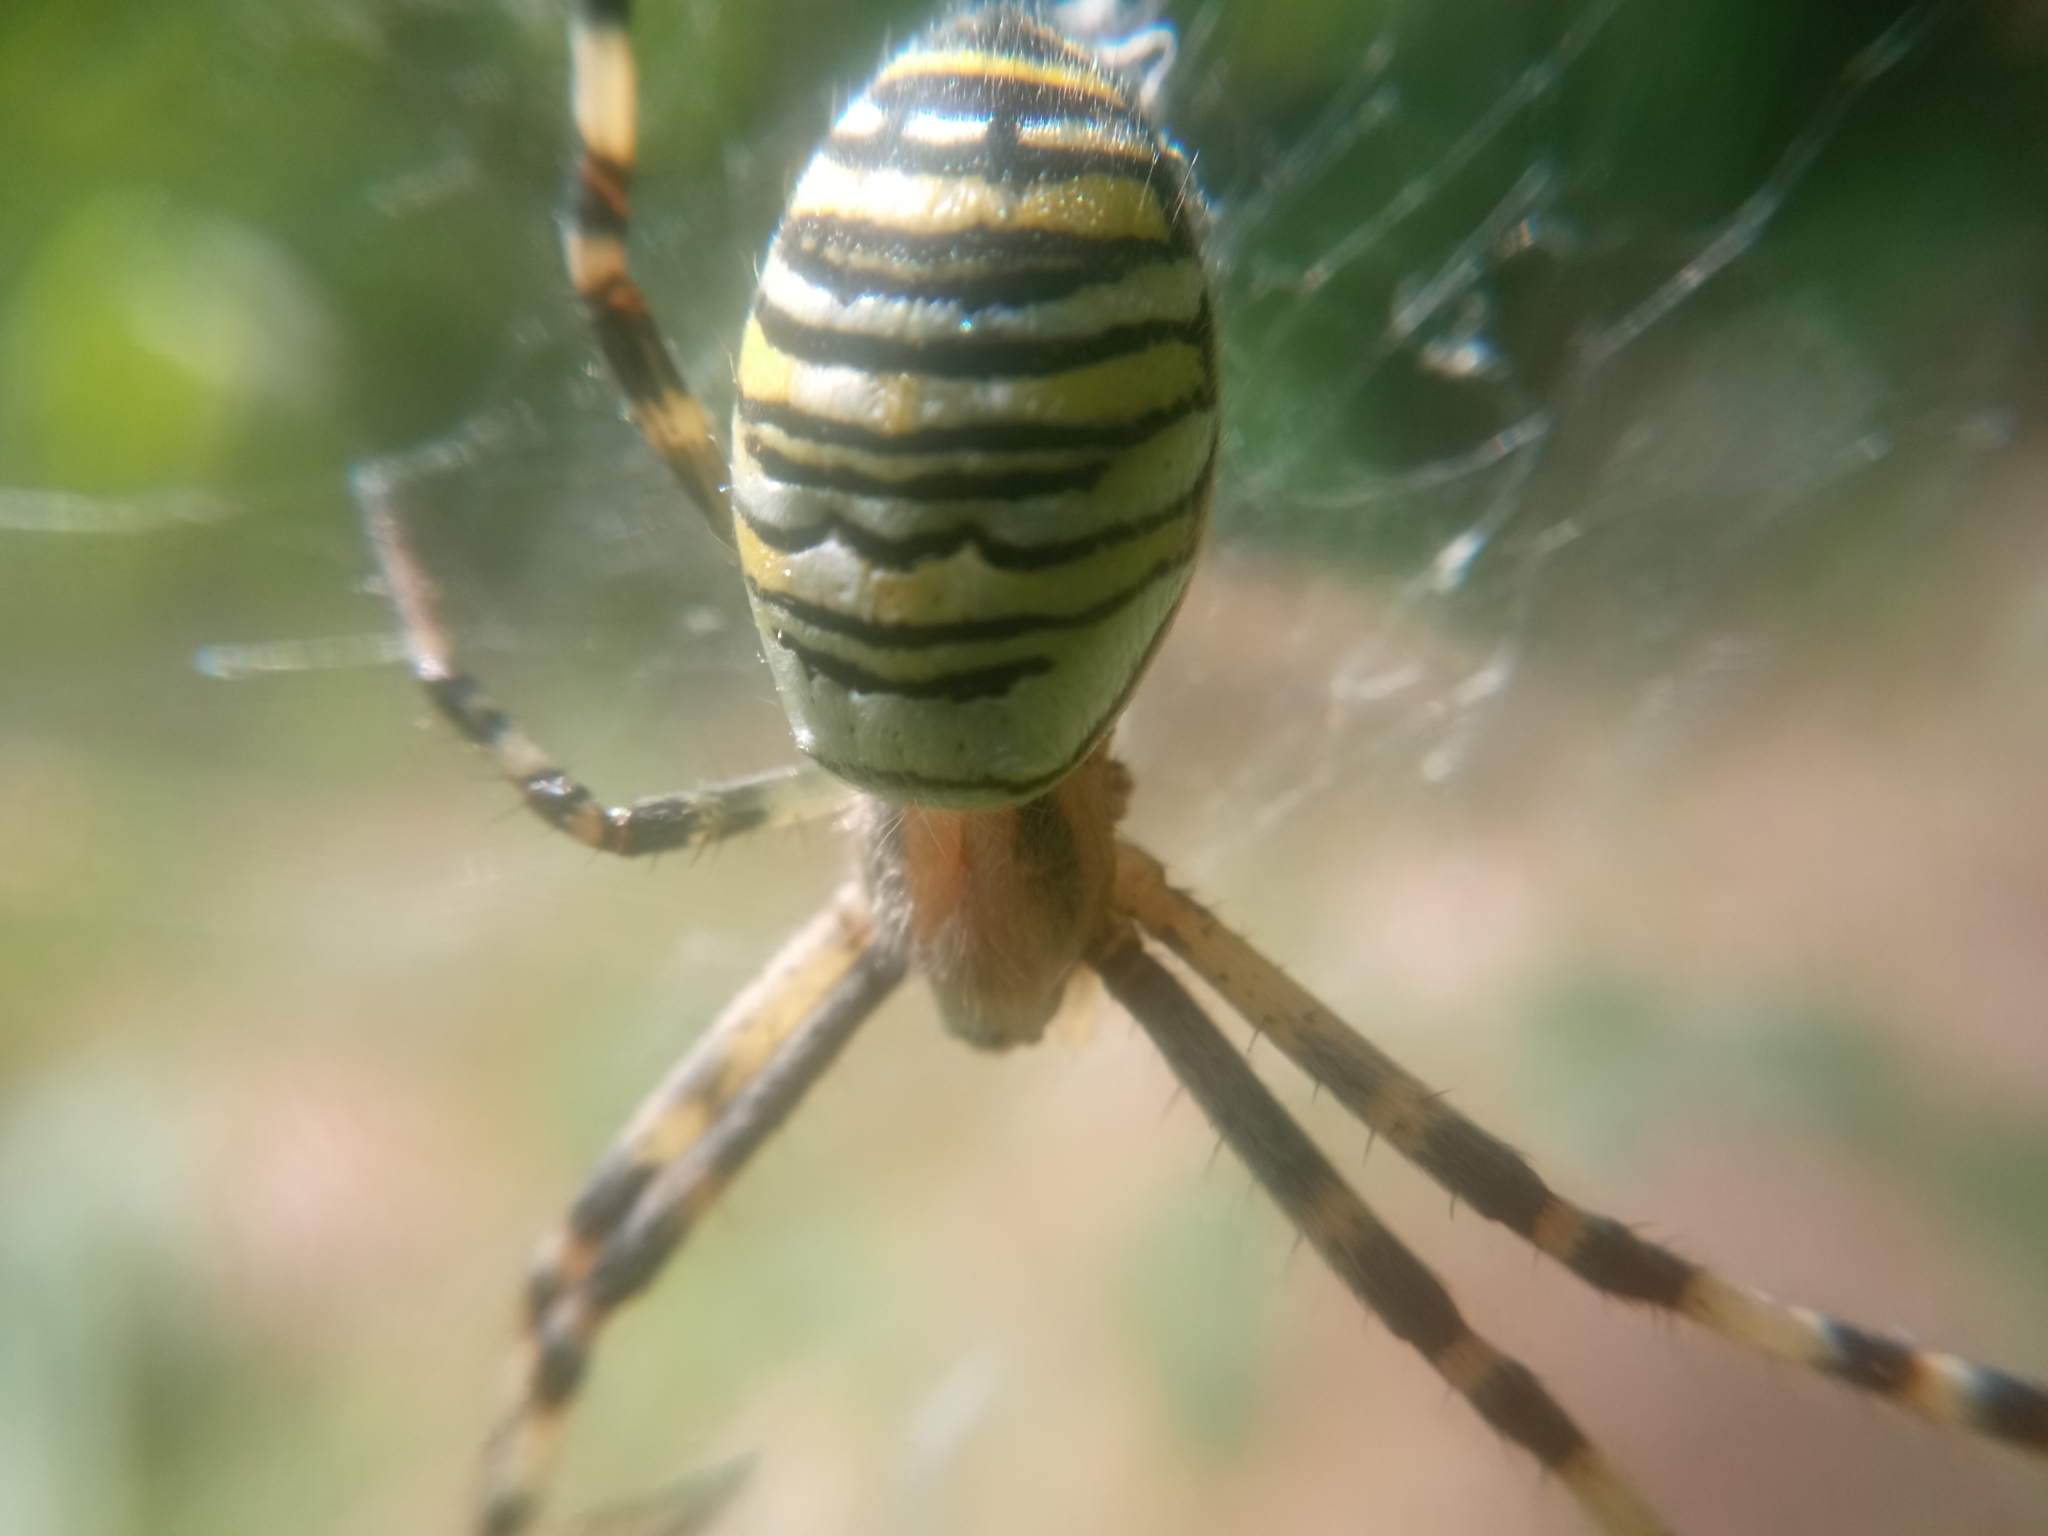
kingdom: Animalia
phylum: Arthropoda
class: Arachnida
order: Araneae
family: Araneidae
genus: Argiope
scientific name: Argiope bruennichi
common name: Wasp spider
